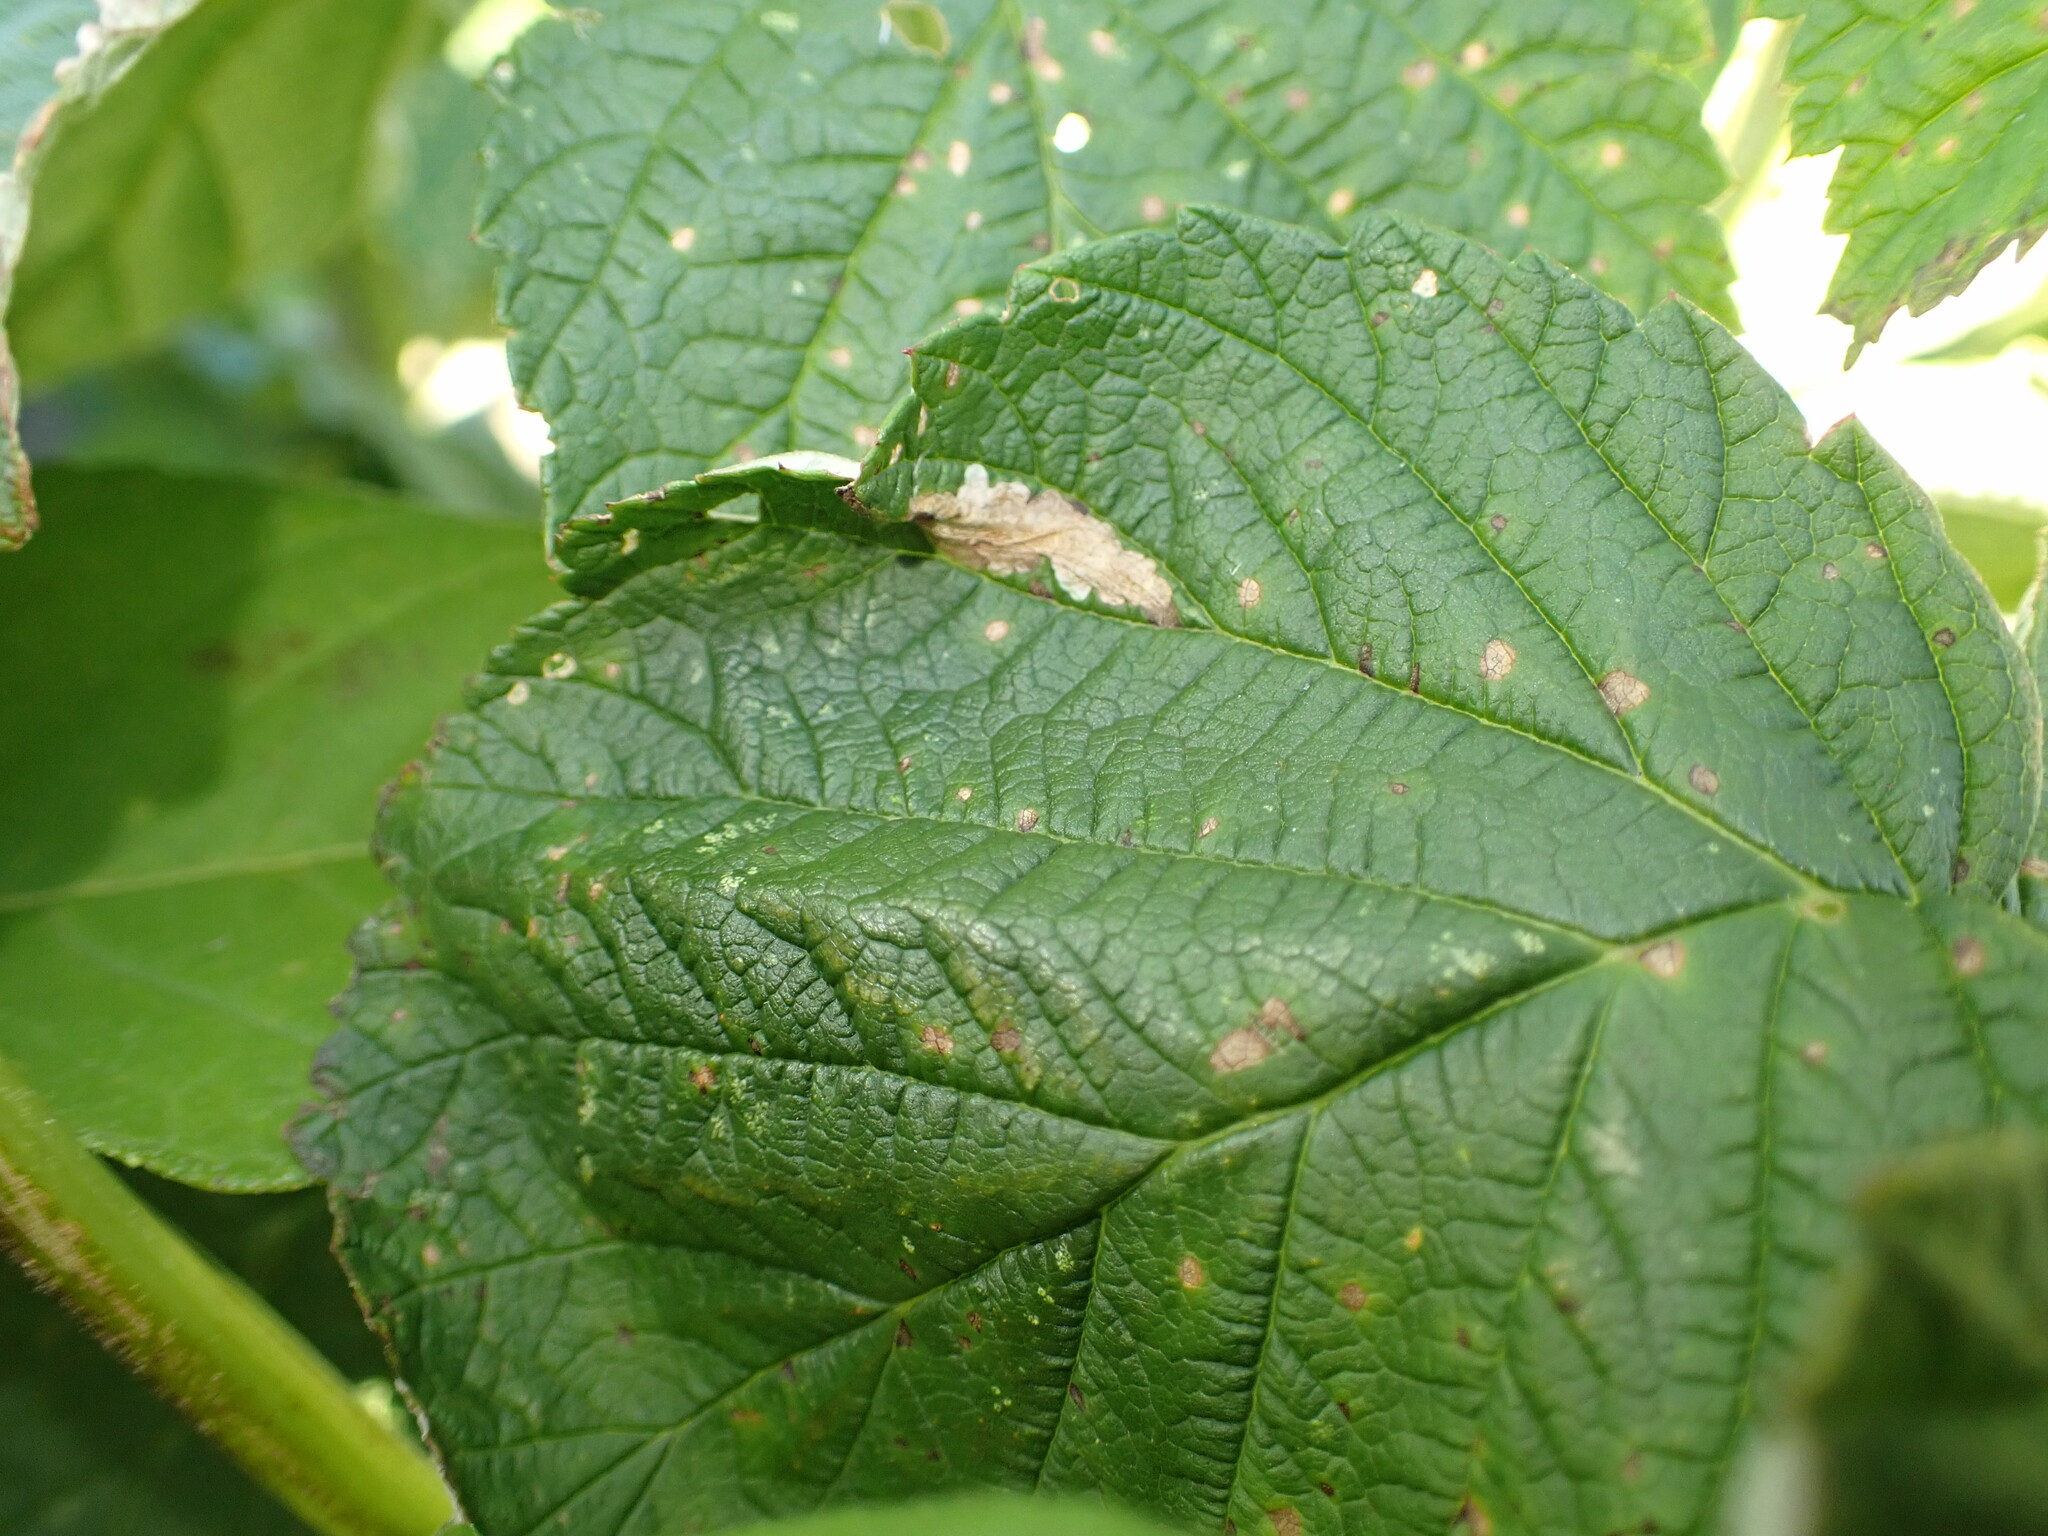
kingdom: Animalia
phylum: Arthropoda
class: Insecta
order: Lepidoptera
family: Tischeriidae
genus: Coptotriche
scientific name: Coptotriche aenea
